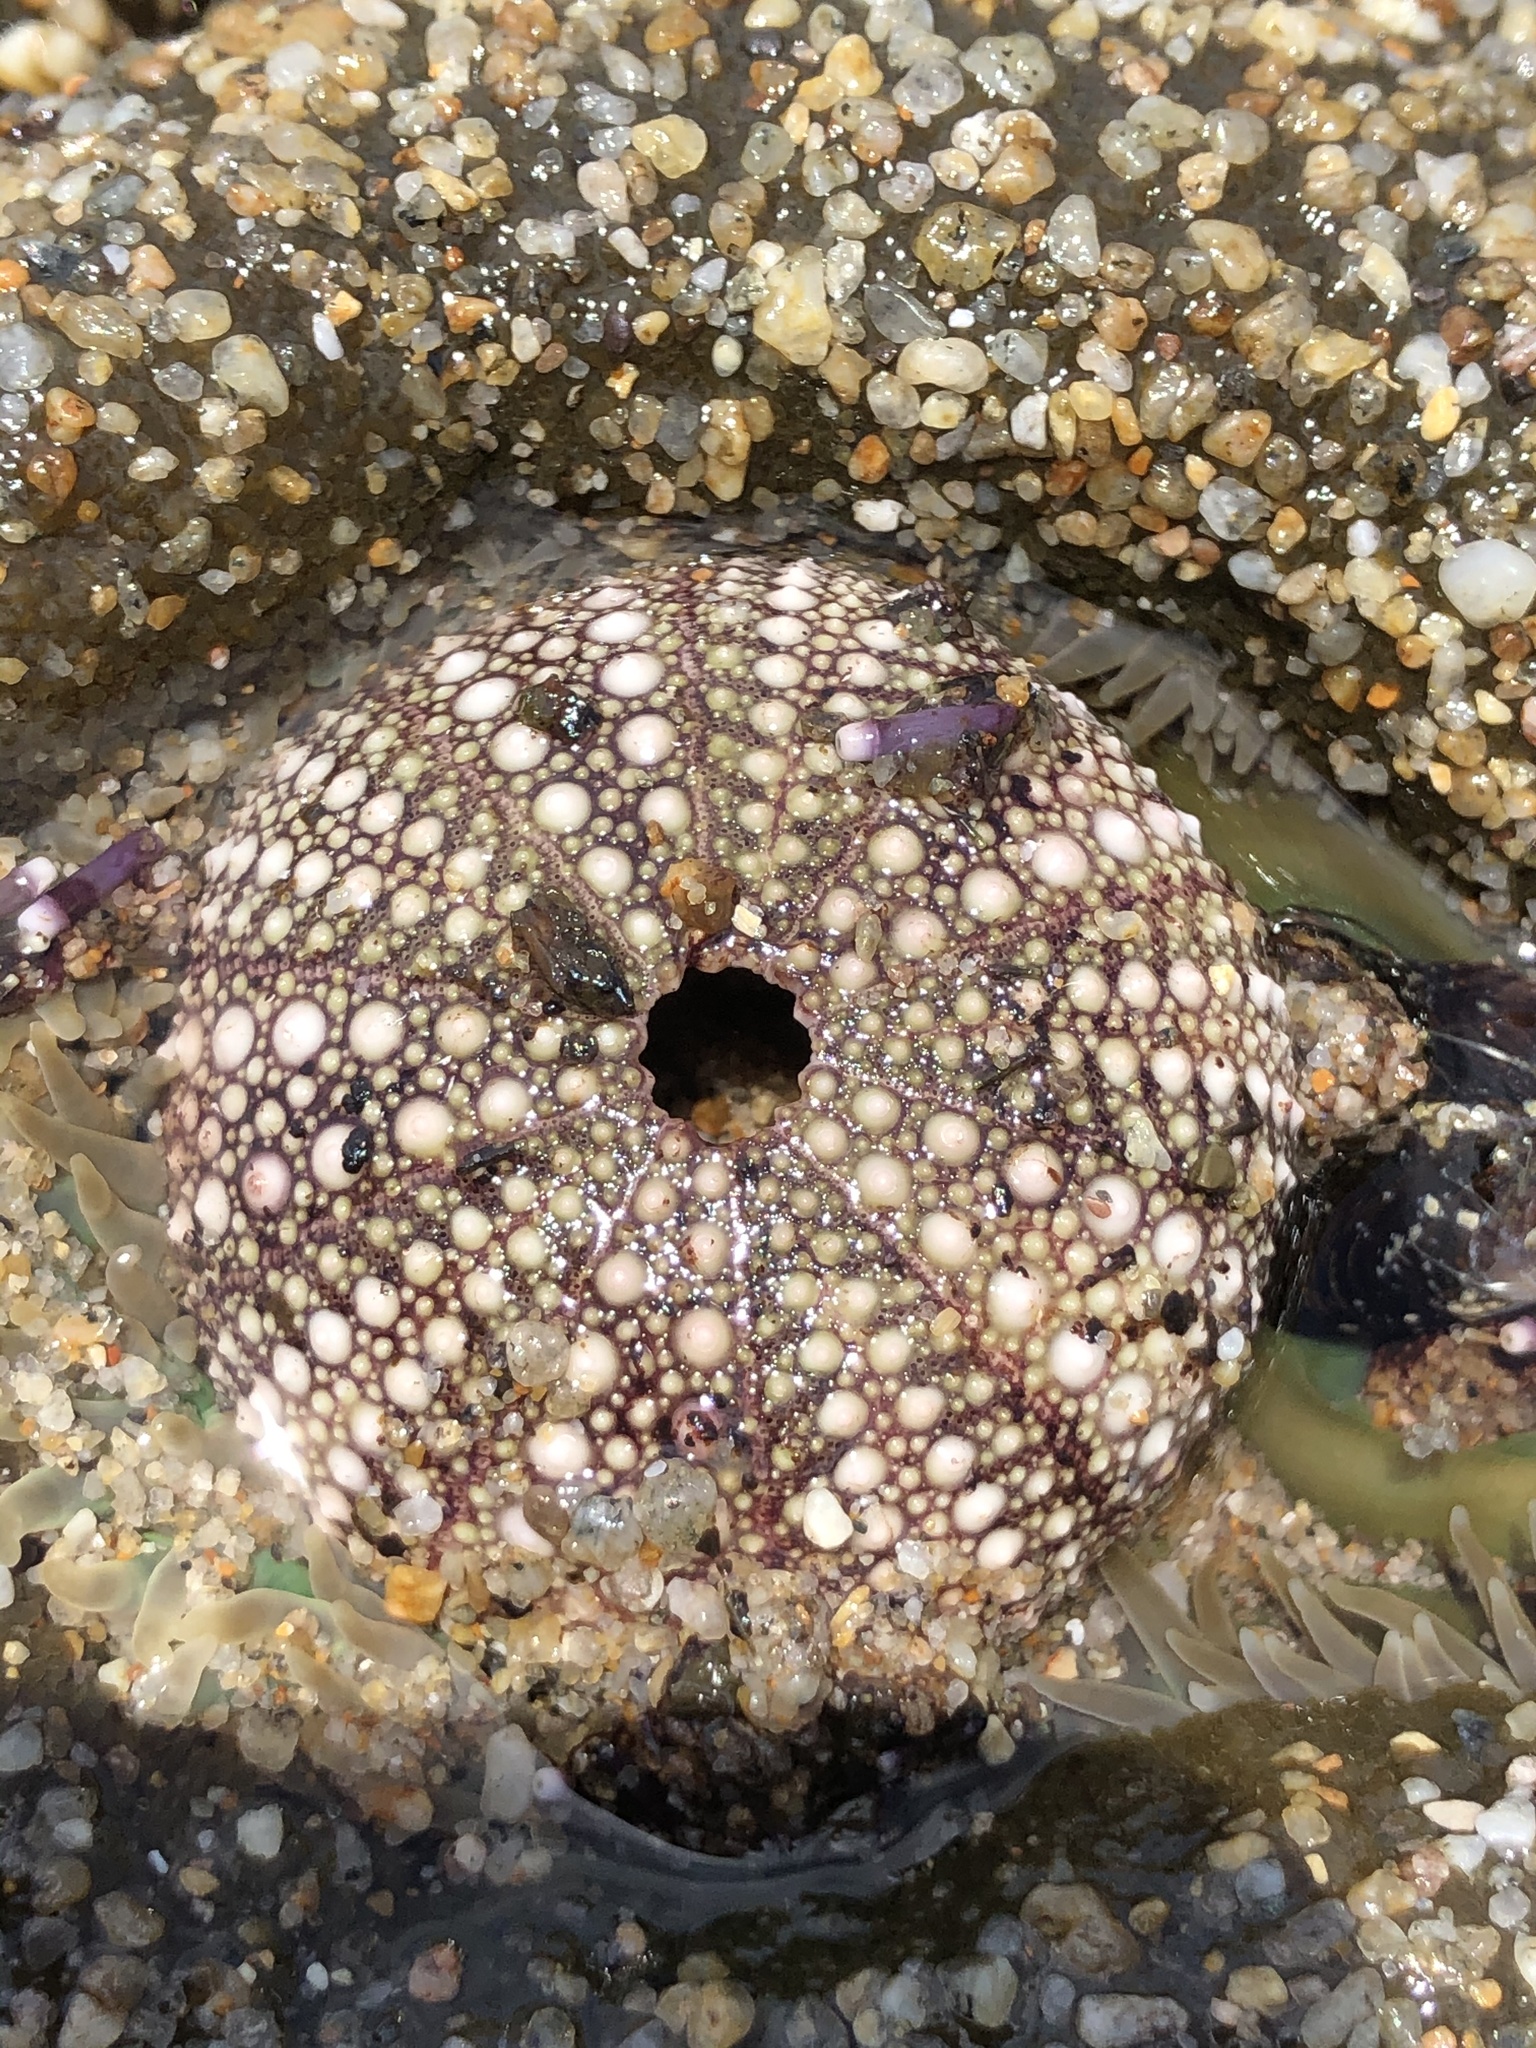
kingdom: Animalia
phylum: Echinodermata
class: Echinoidea
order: Camarodonta
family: Strongylocentrotidae
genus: Strongylocentrotus
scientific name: Strongylocentrotus purpuratus
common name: Purple sea urchin
